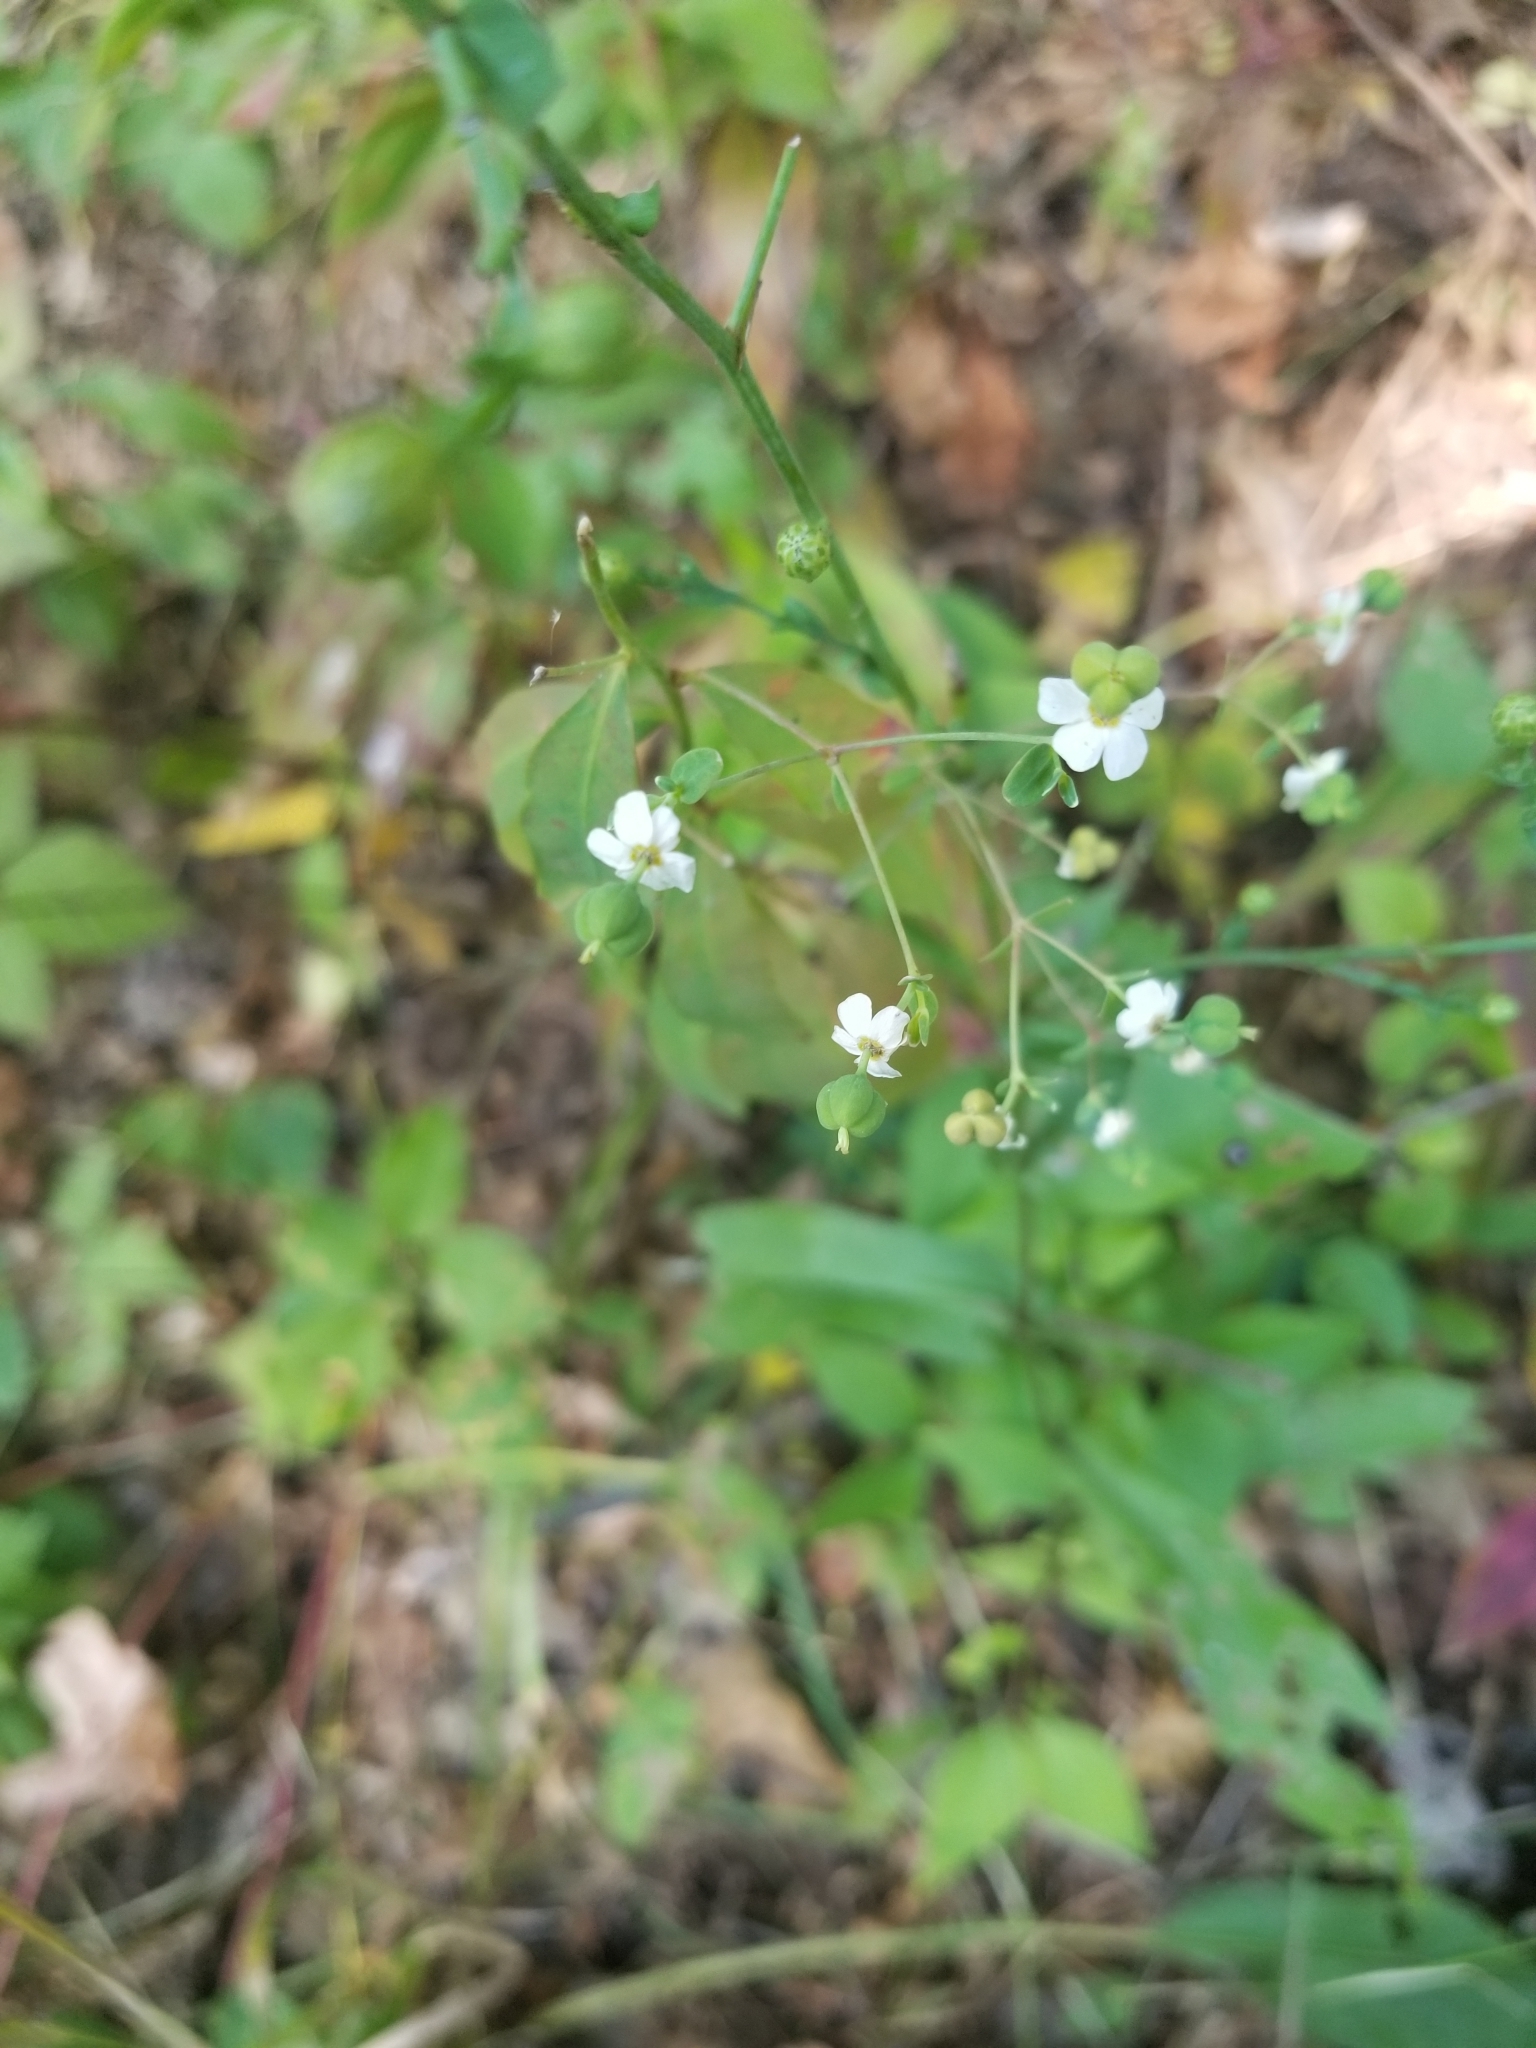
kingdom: Plantae
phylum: Tracheophyta
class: Magnoliopsida
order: Malpighiales
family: Euphorbiaceae
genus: Euphorbia
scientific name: Euphorbia corollata
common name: Flowering spurge
